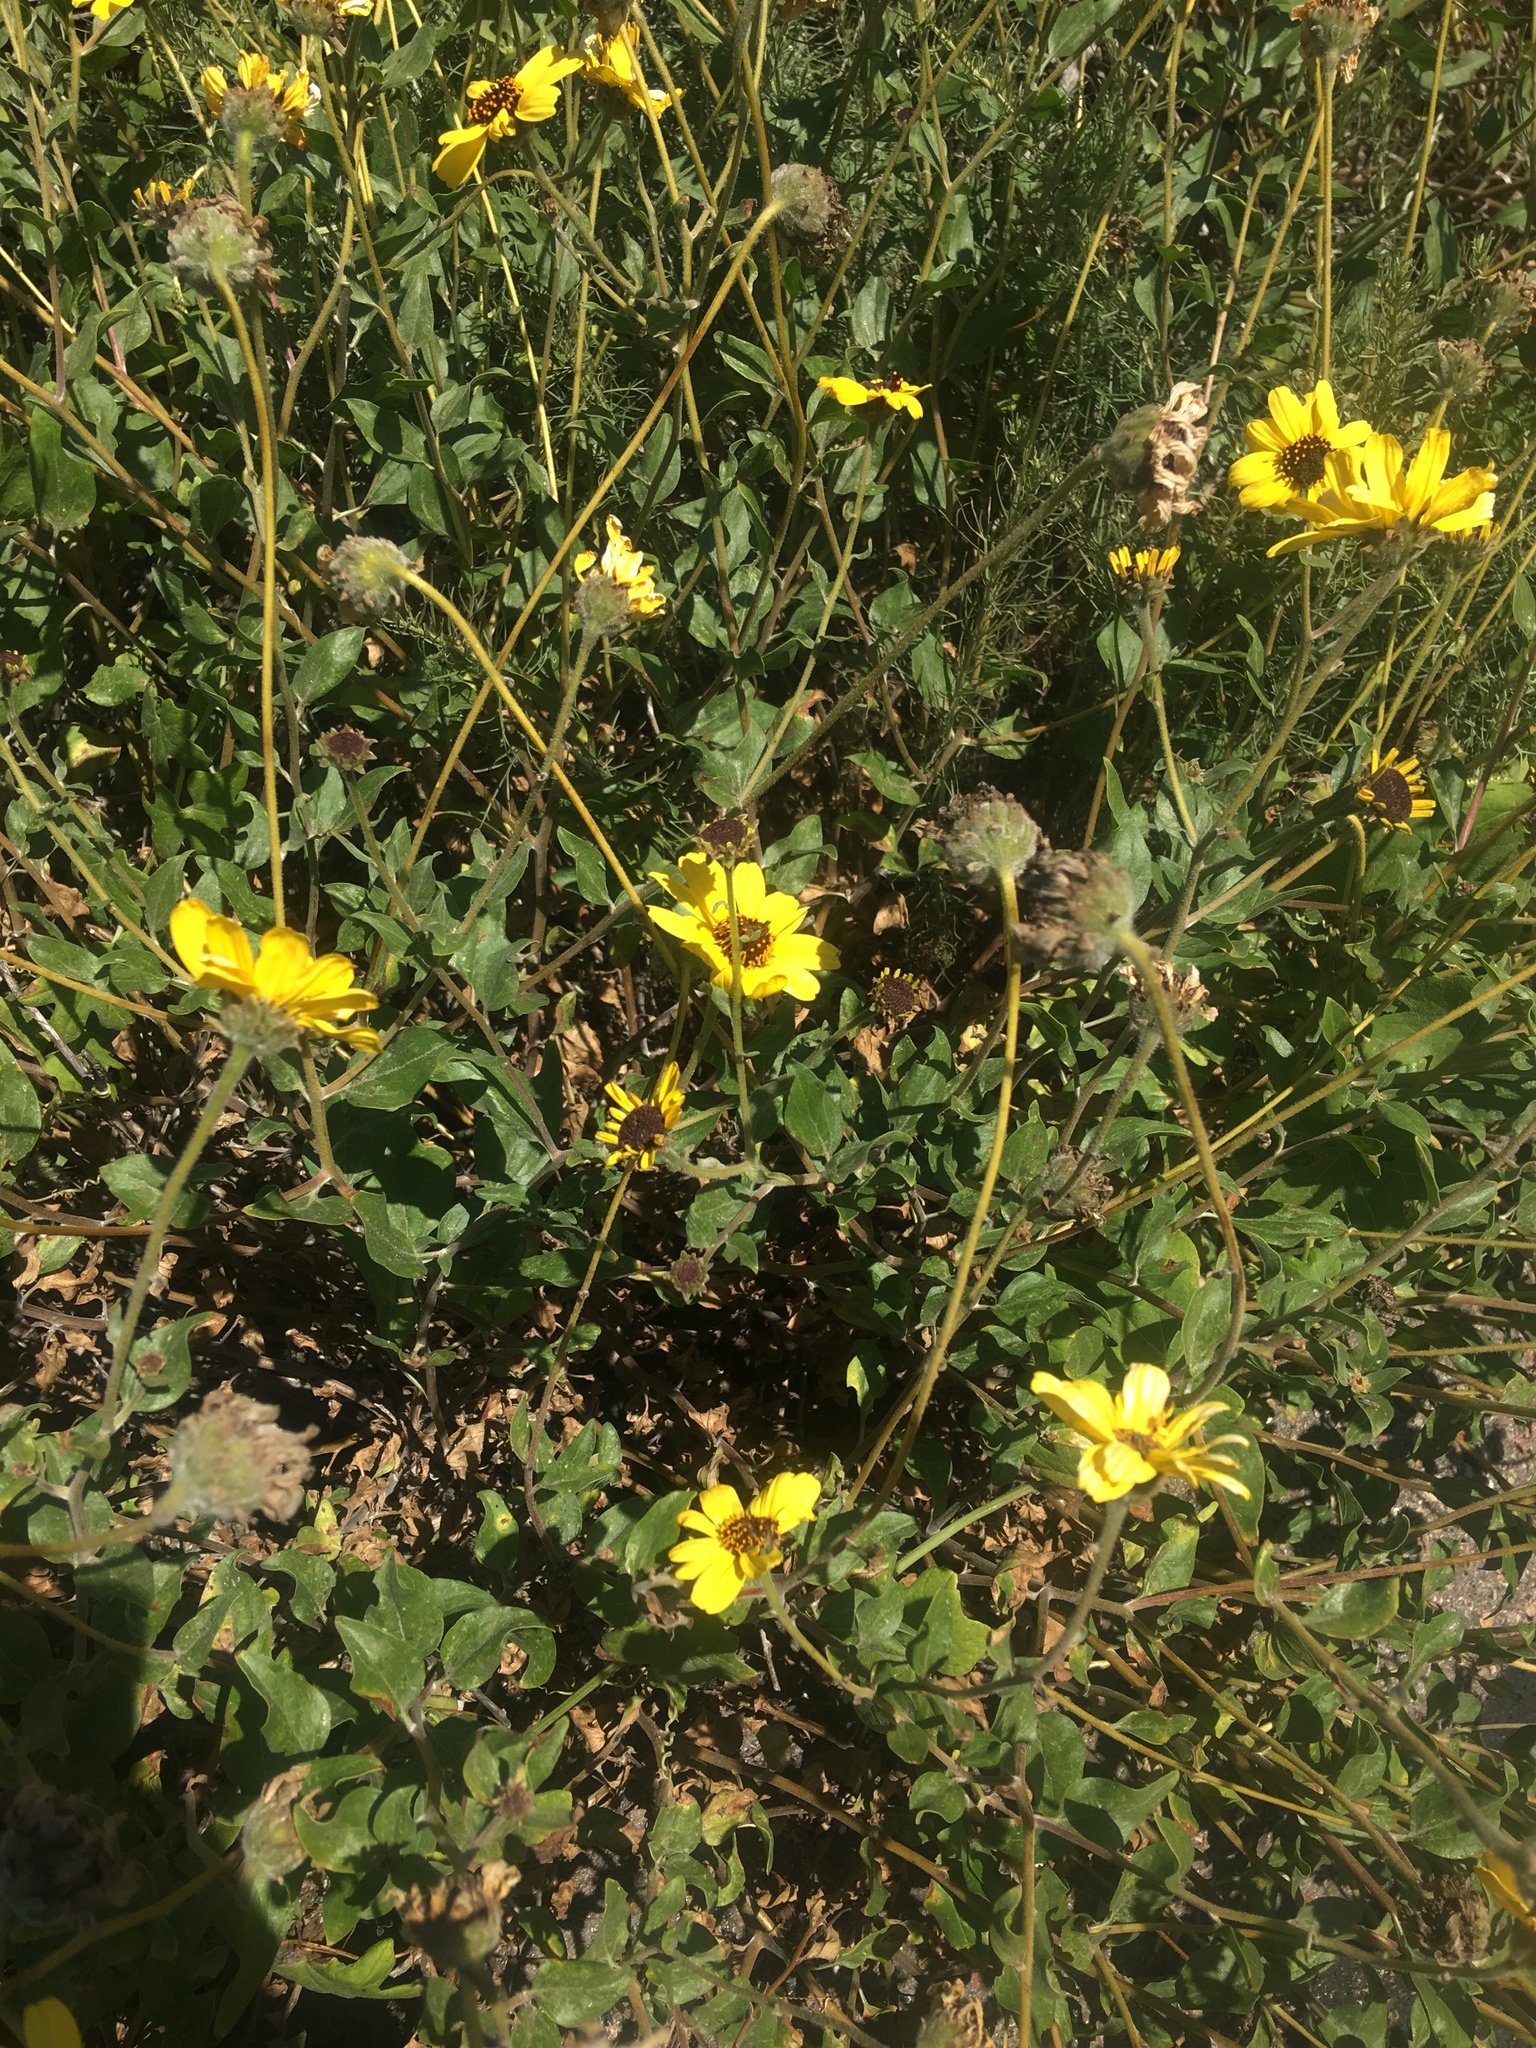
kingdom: Plantae
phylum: Tracheophyta
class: Magnoliopsida
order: Asterales
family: Asteraceae
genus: Encelia
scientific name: Encelia californica
